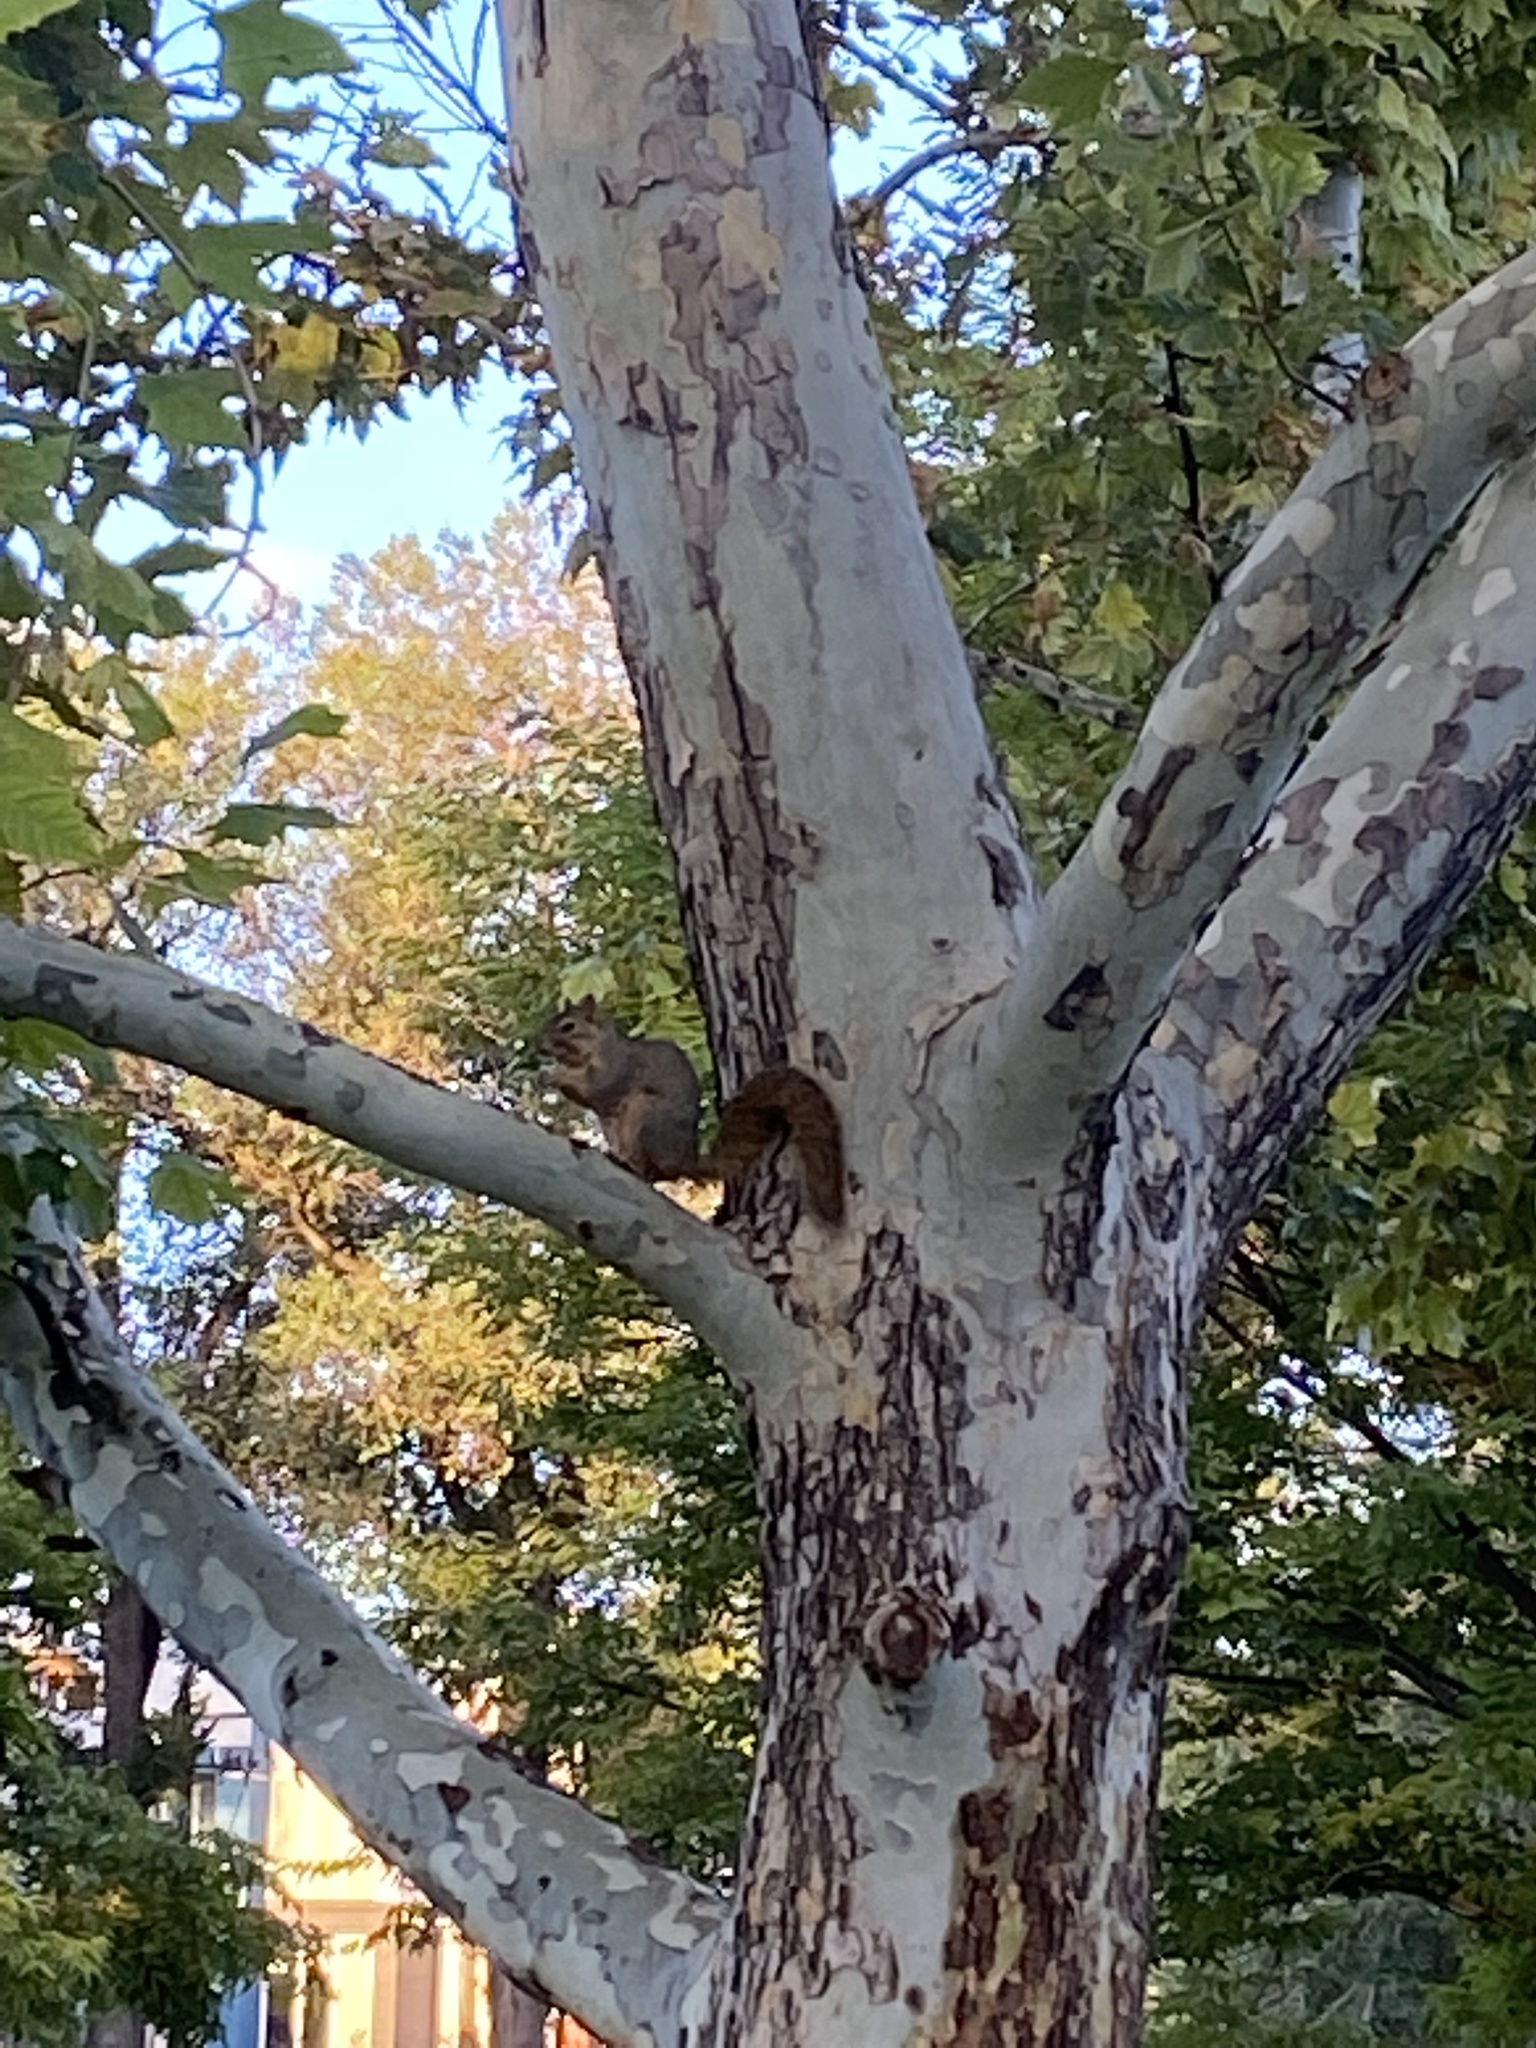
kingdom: Animalia
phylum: Chordata
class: Mammalia
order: Rodentia
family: Sciuridae
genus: Sciurus
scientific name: Sciurus niger
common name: Fox squirrel
